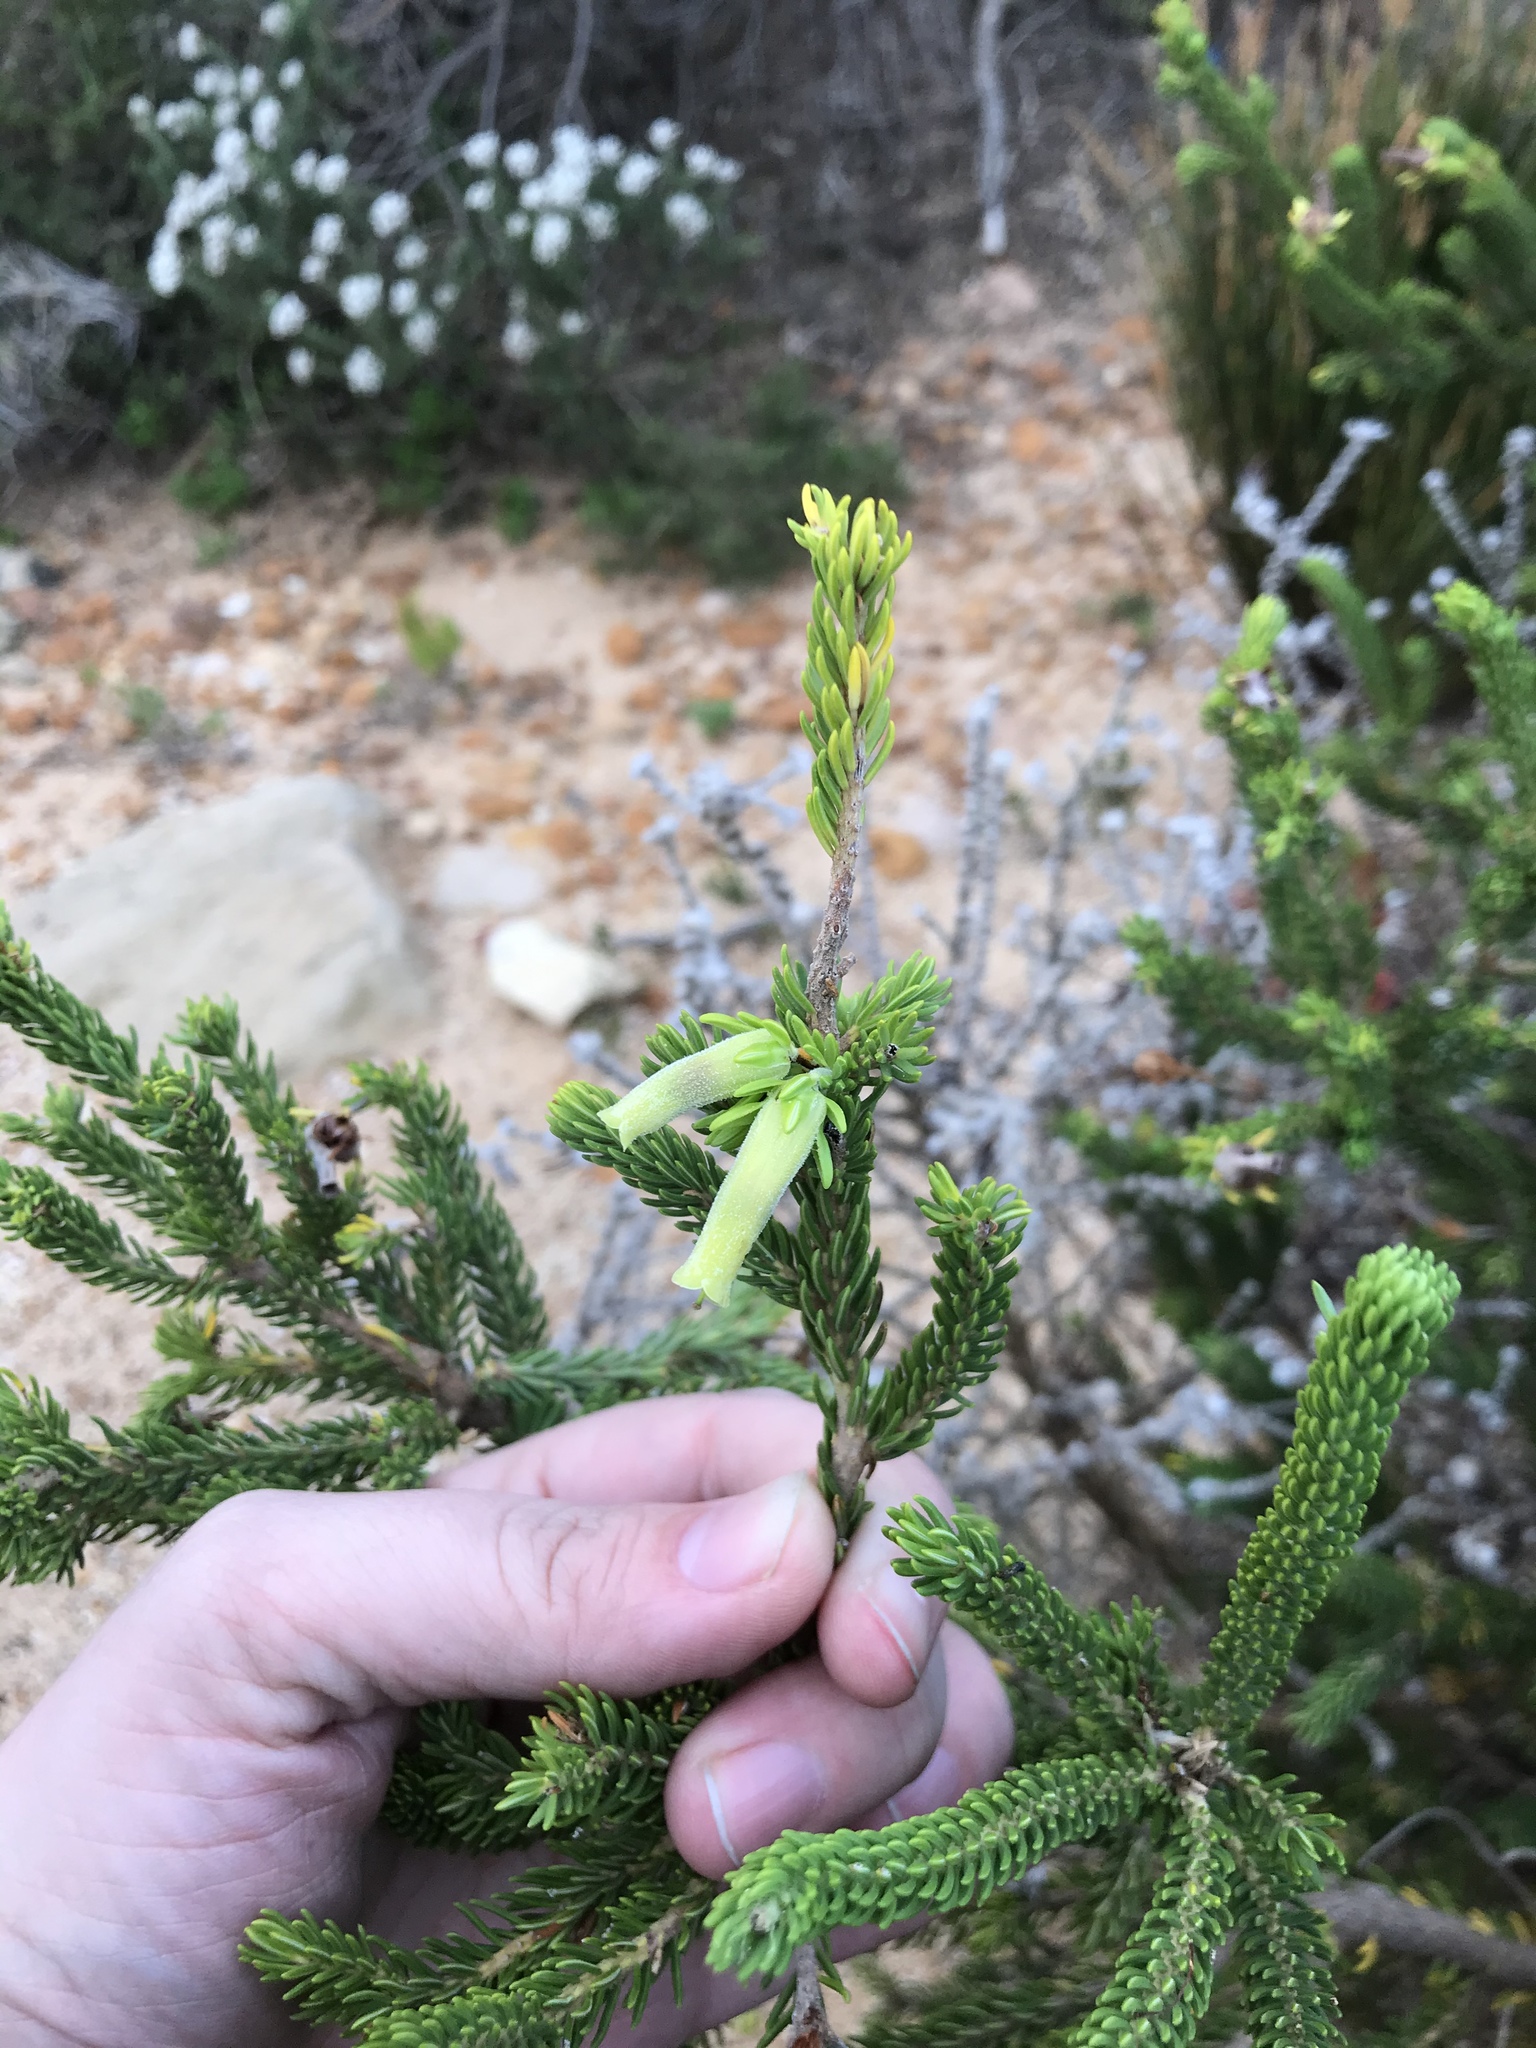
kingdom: Plantae
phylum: Tracheophyta
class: Magnoliopsida
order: Ericales
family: Ericaceae
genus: Erica
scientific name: Erica brachialis
